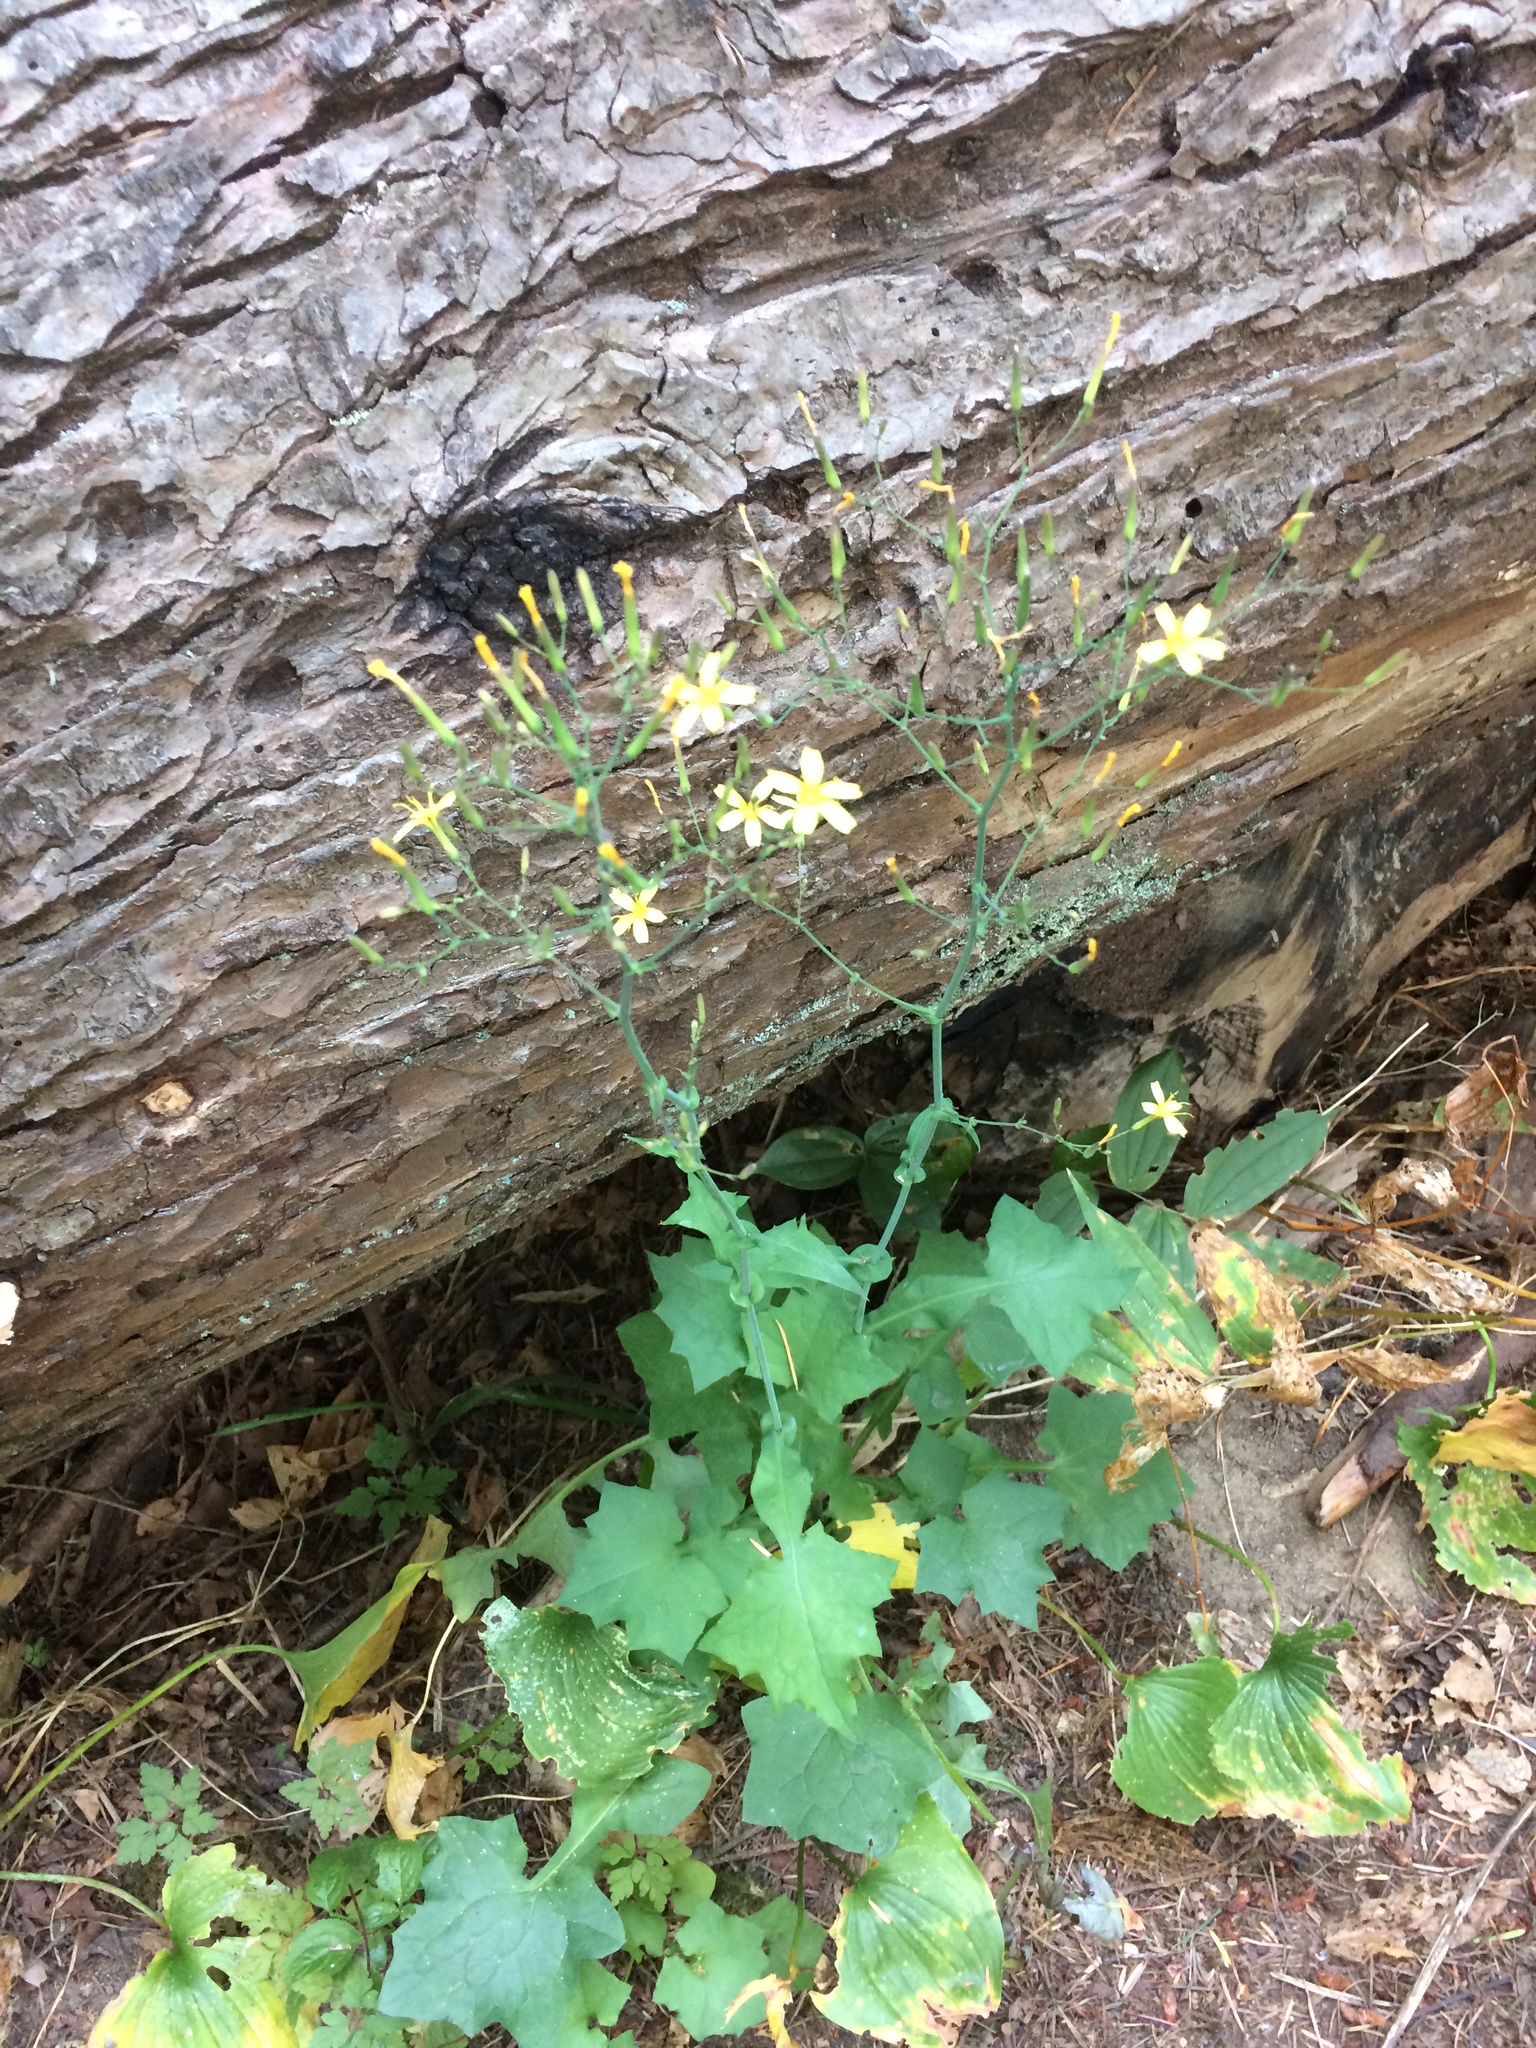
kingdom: Plantae
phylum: Tracheophyta
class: Magnoliopsida
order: Asterales
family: Asteraceae
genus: Mycelis
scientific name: Mycelis muralis
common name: Wall lettuce
